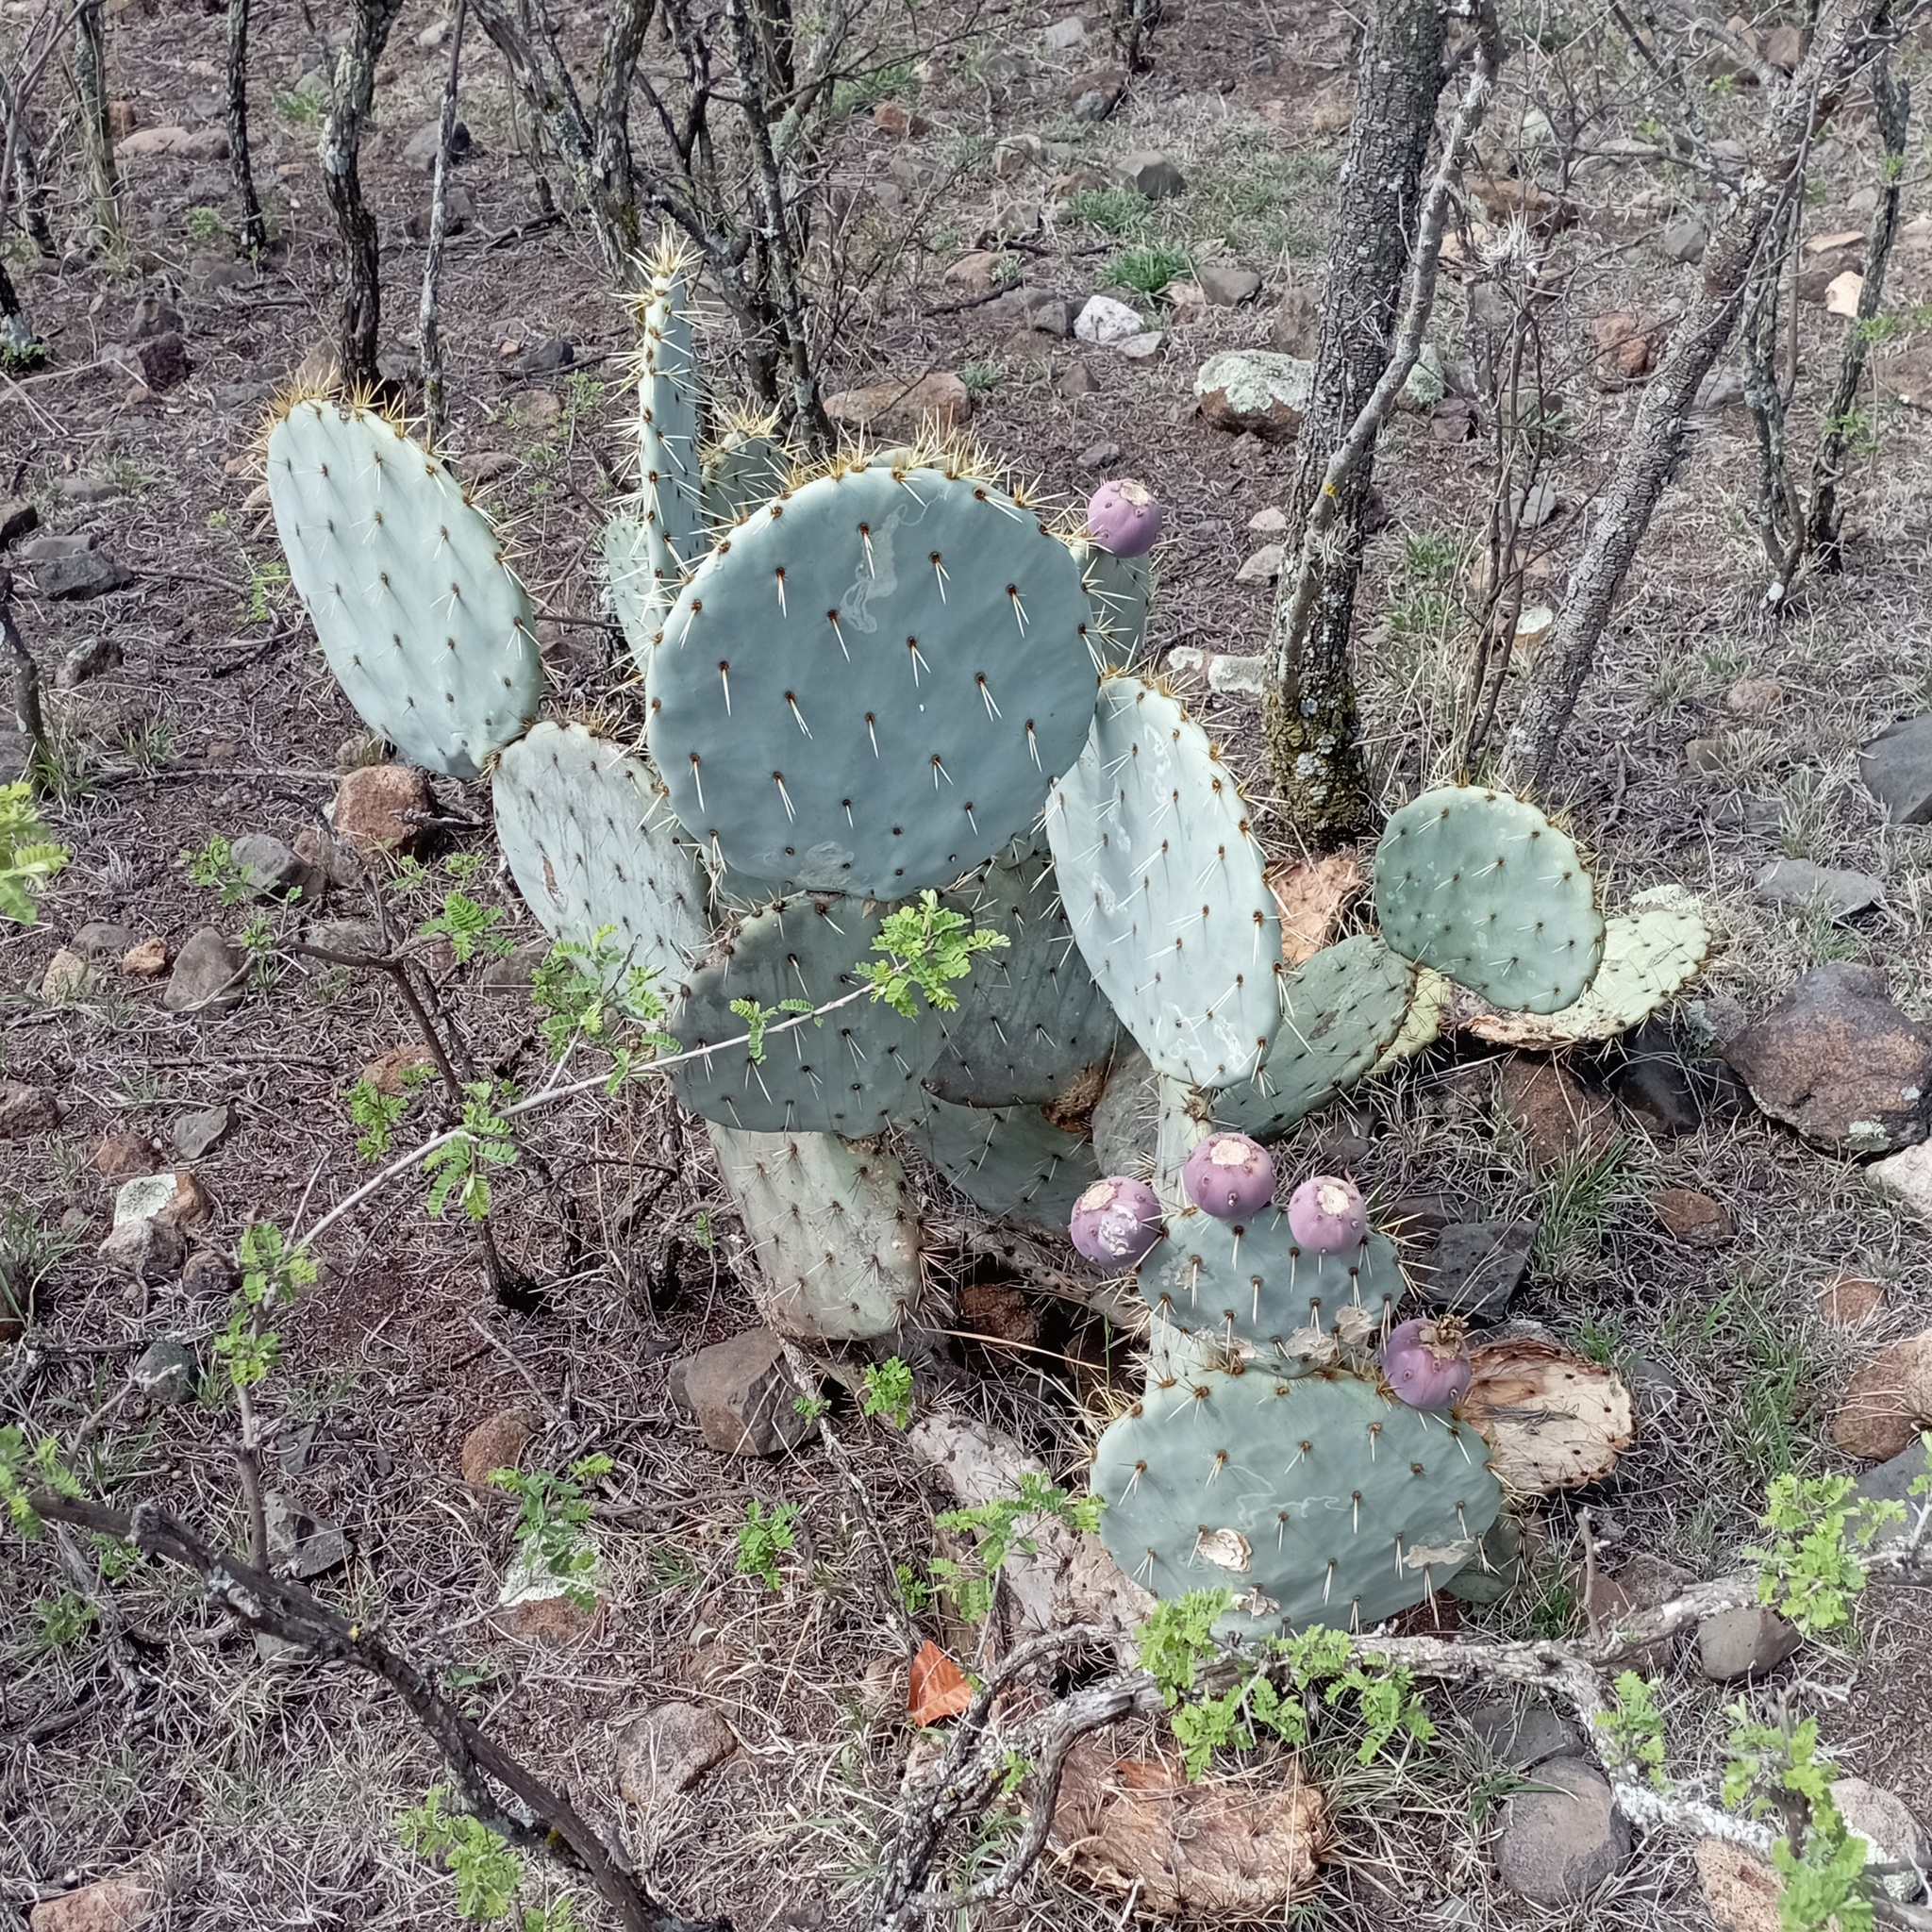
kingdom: Plantae
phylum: Tracheophyta
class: Magnoliopsida
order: Caryophyllales
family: Cactaceae
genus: Opuntia
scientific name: Opuntia robusta
